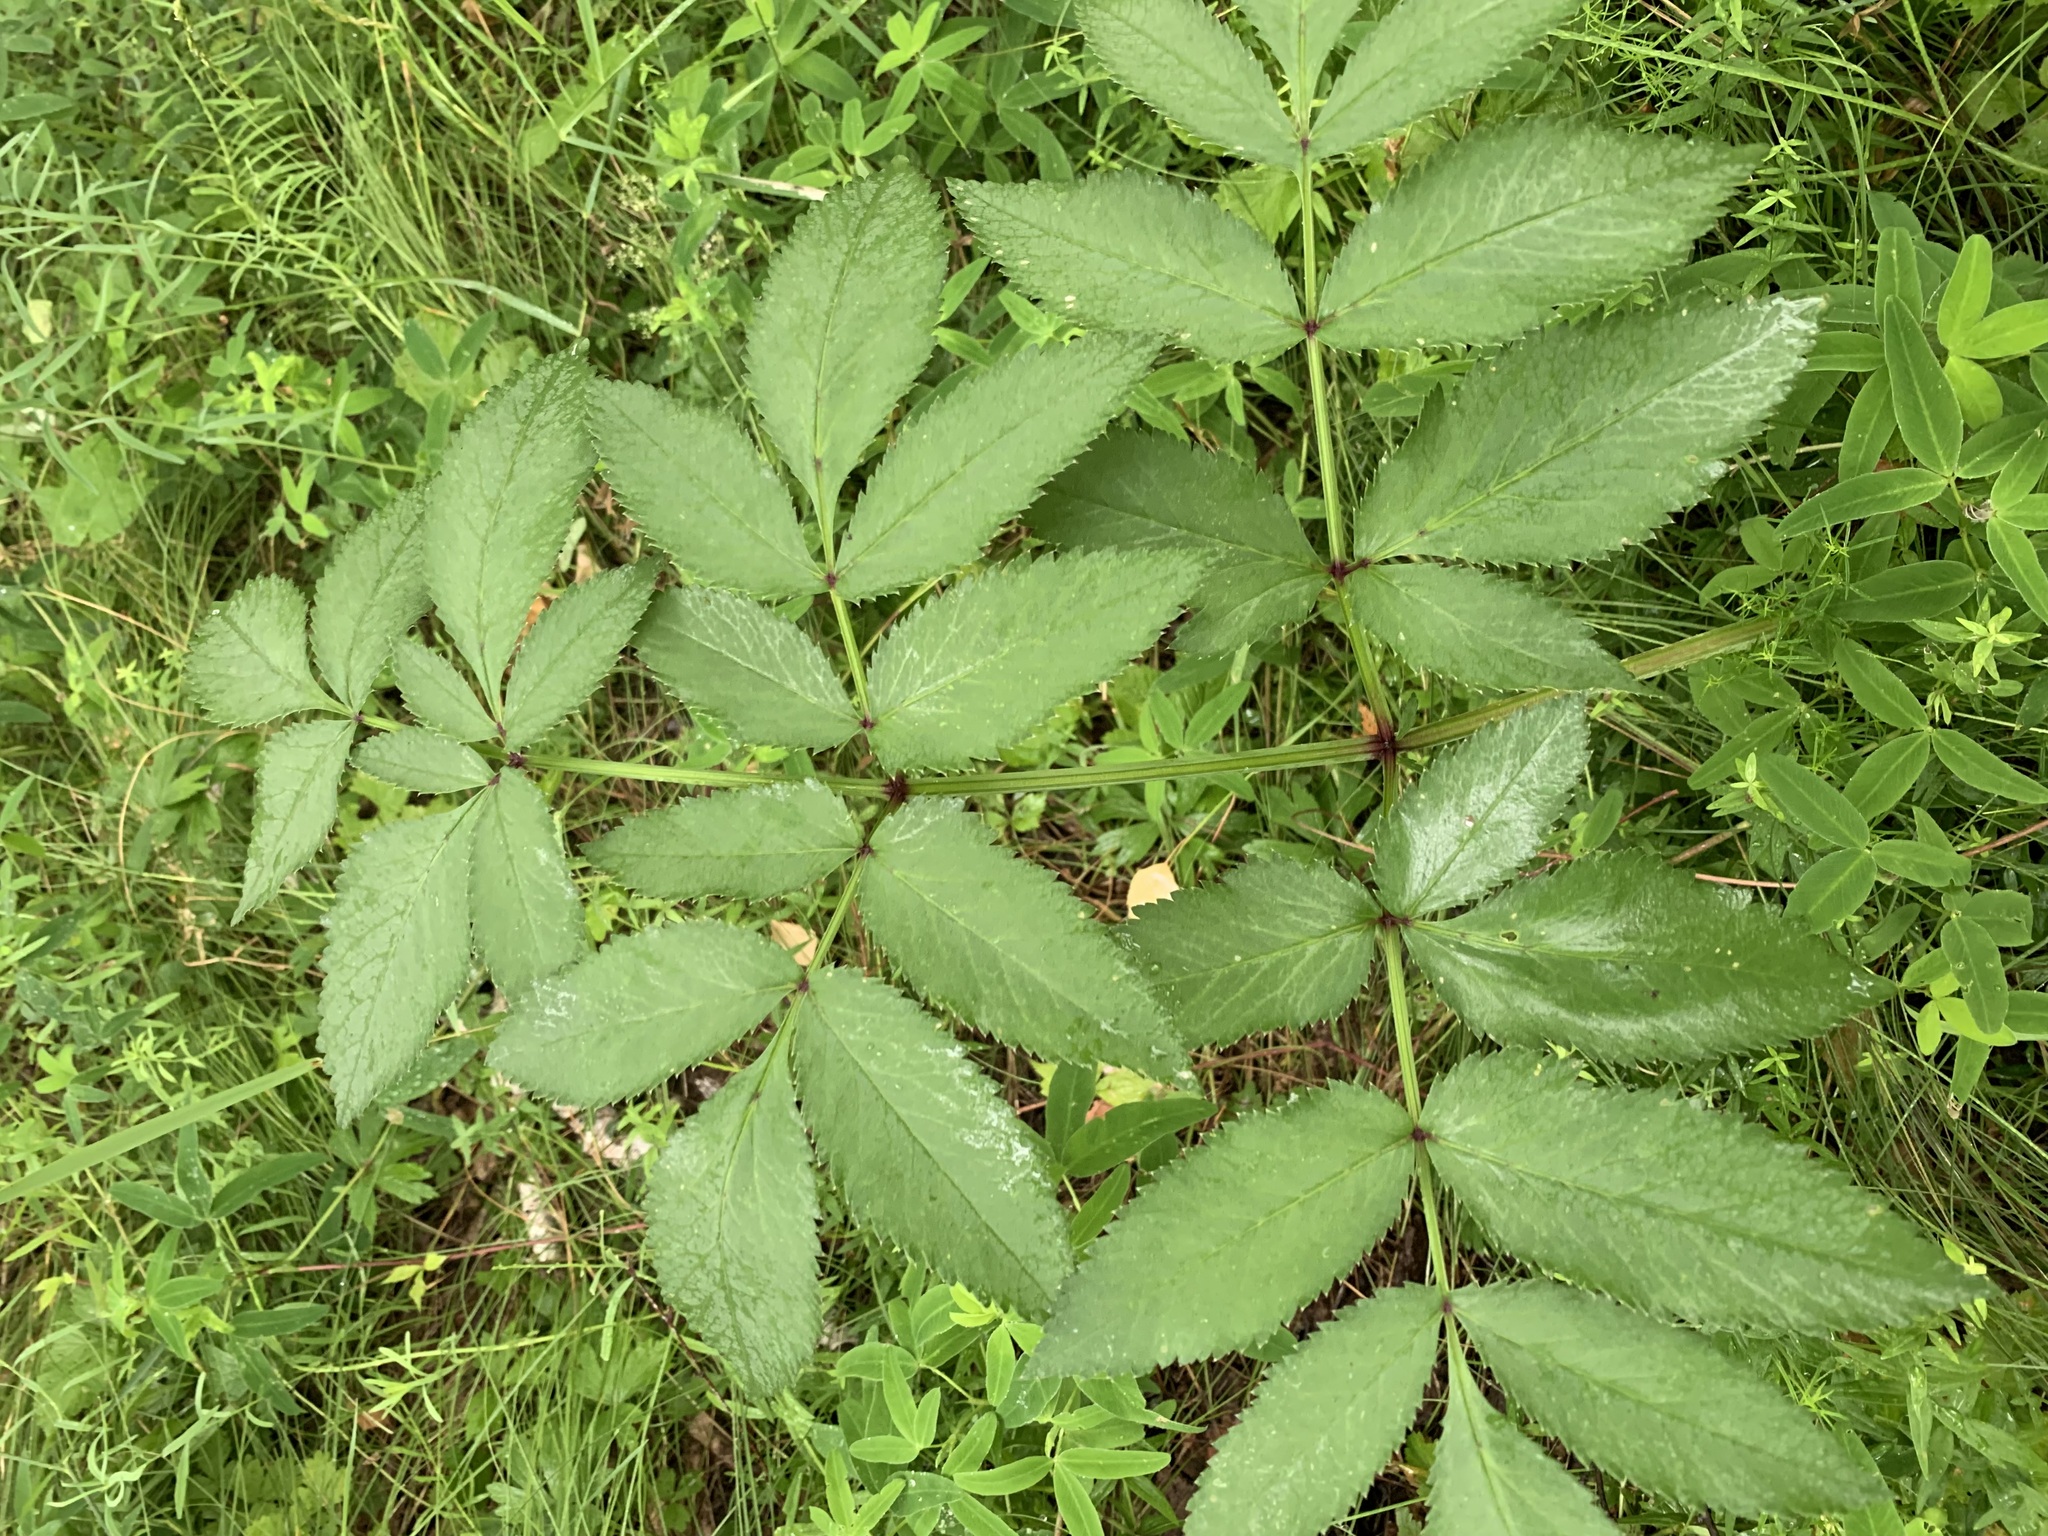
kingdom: Plantae
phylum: Tracheophyta
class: Magnoliopsida
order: Apiales
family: Apiaceae
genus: Angelica
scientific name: Angelica sylvestris
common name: Wild angelica
